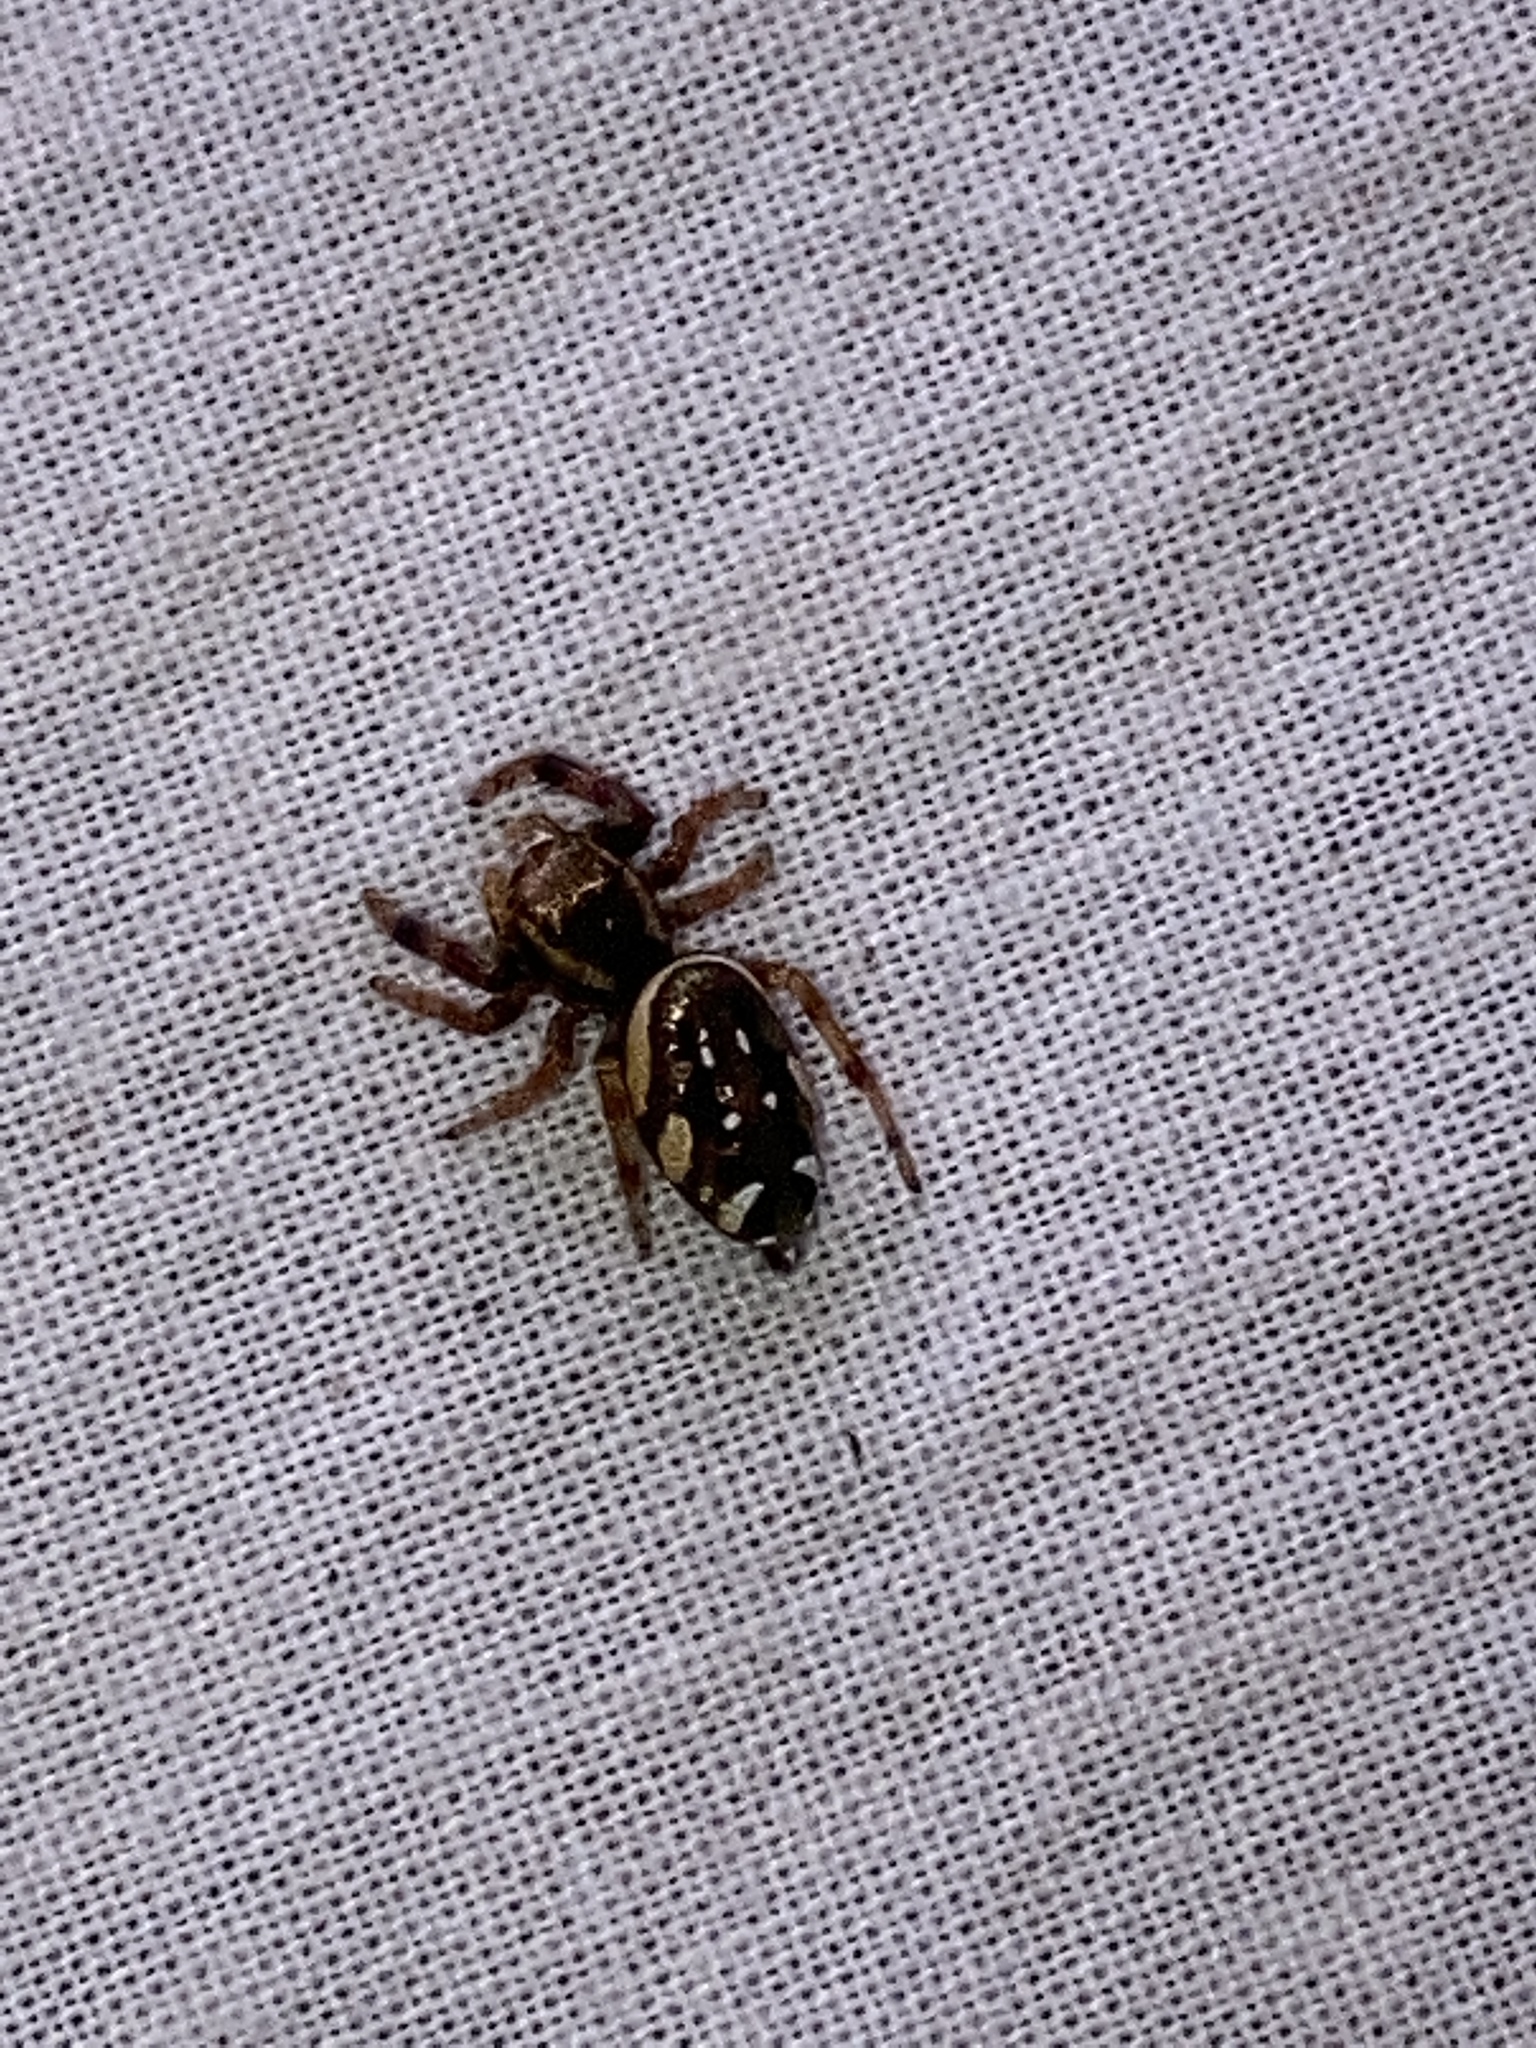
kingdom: Animalia
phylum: Arthropoda
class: Arachnida
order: Araneae
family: Salticidae
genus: Paraphidippus
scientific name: Paraphidippus aurantius
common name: Jumping spiders
